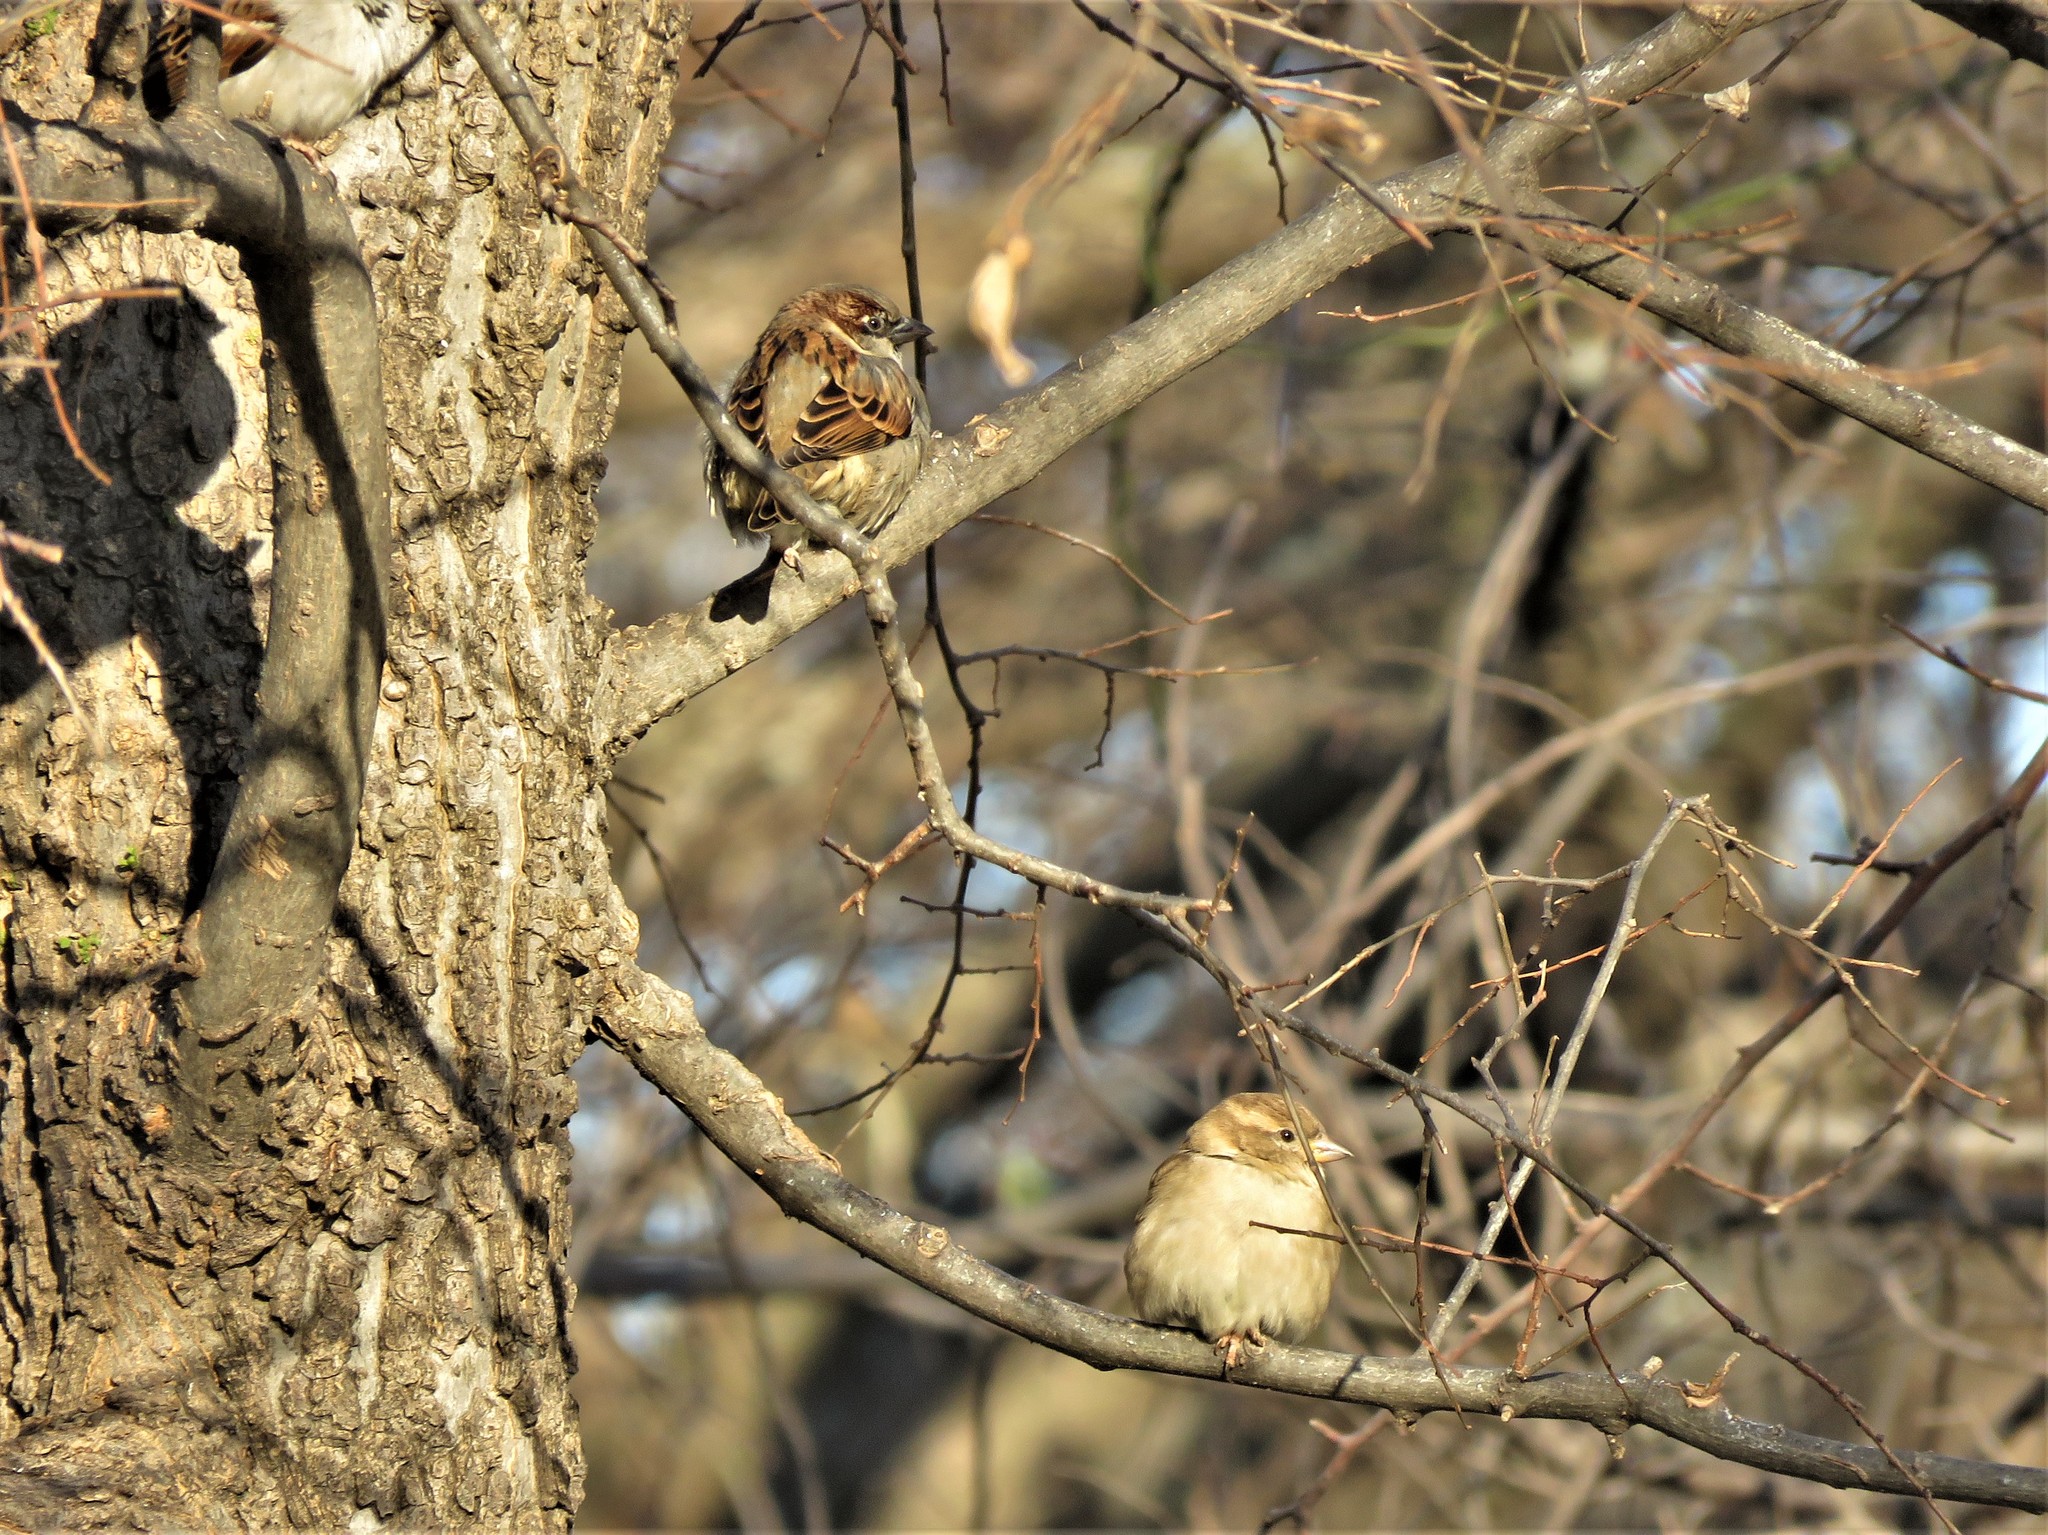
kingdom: Animalia
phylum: Chordata
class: Aves
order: Passeriformes
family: Passeridae
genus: Passer
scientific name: Passer domesticus
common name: House sparrow
